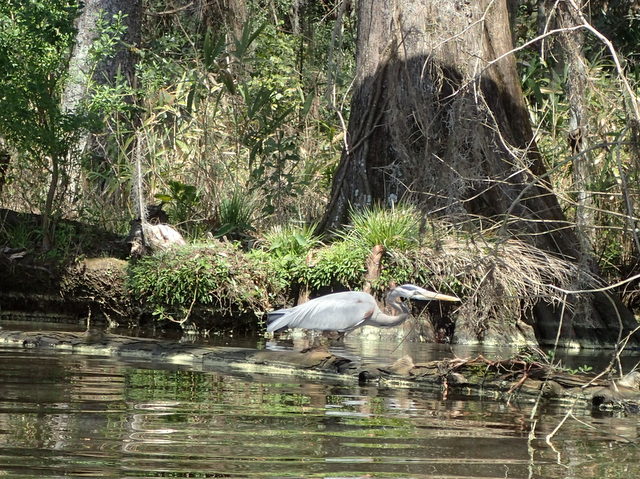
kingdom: Animalia
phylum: Chordata
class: Aves
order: Pelecaniformes
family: Ardeidae
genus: Ardea
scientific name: Ardea herodias
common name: Great blue heron
